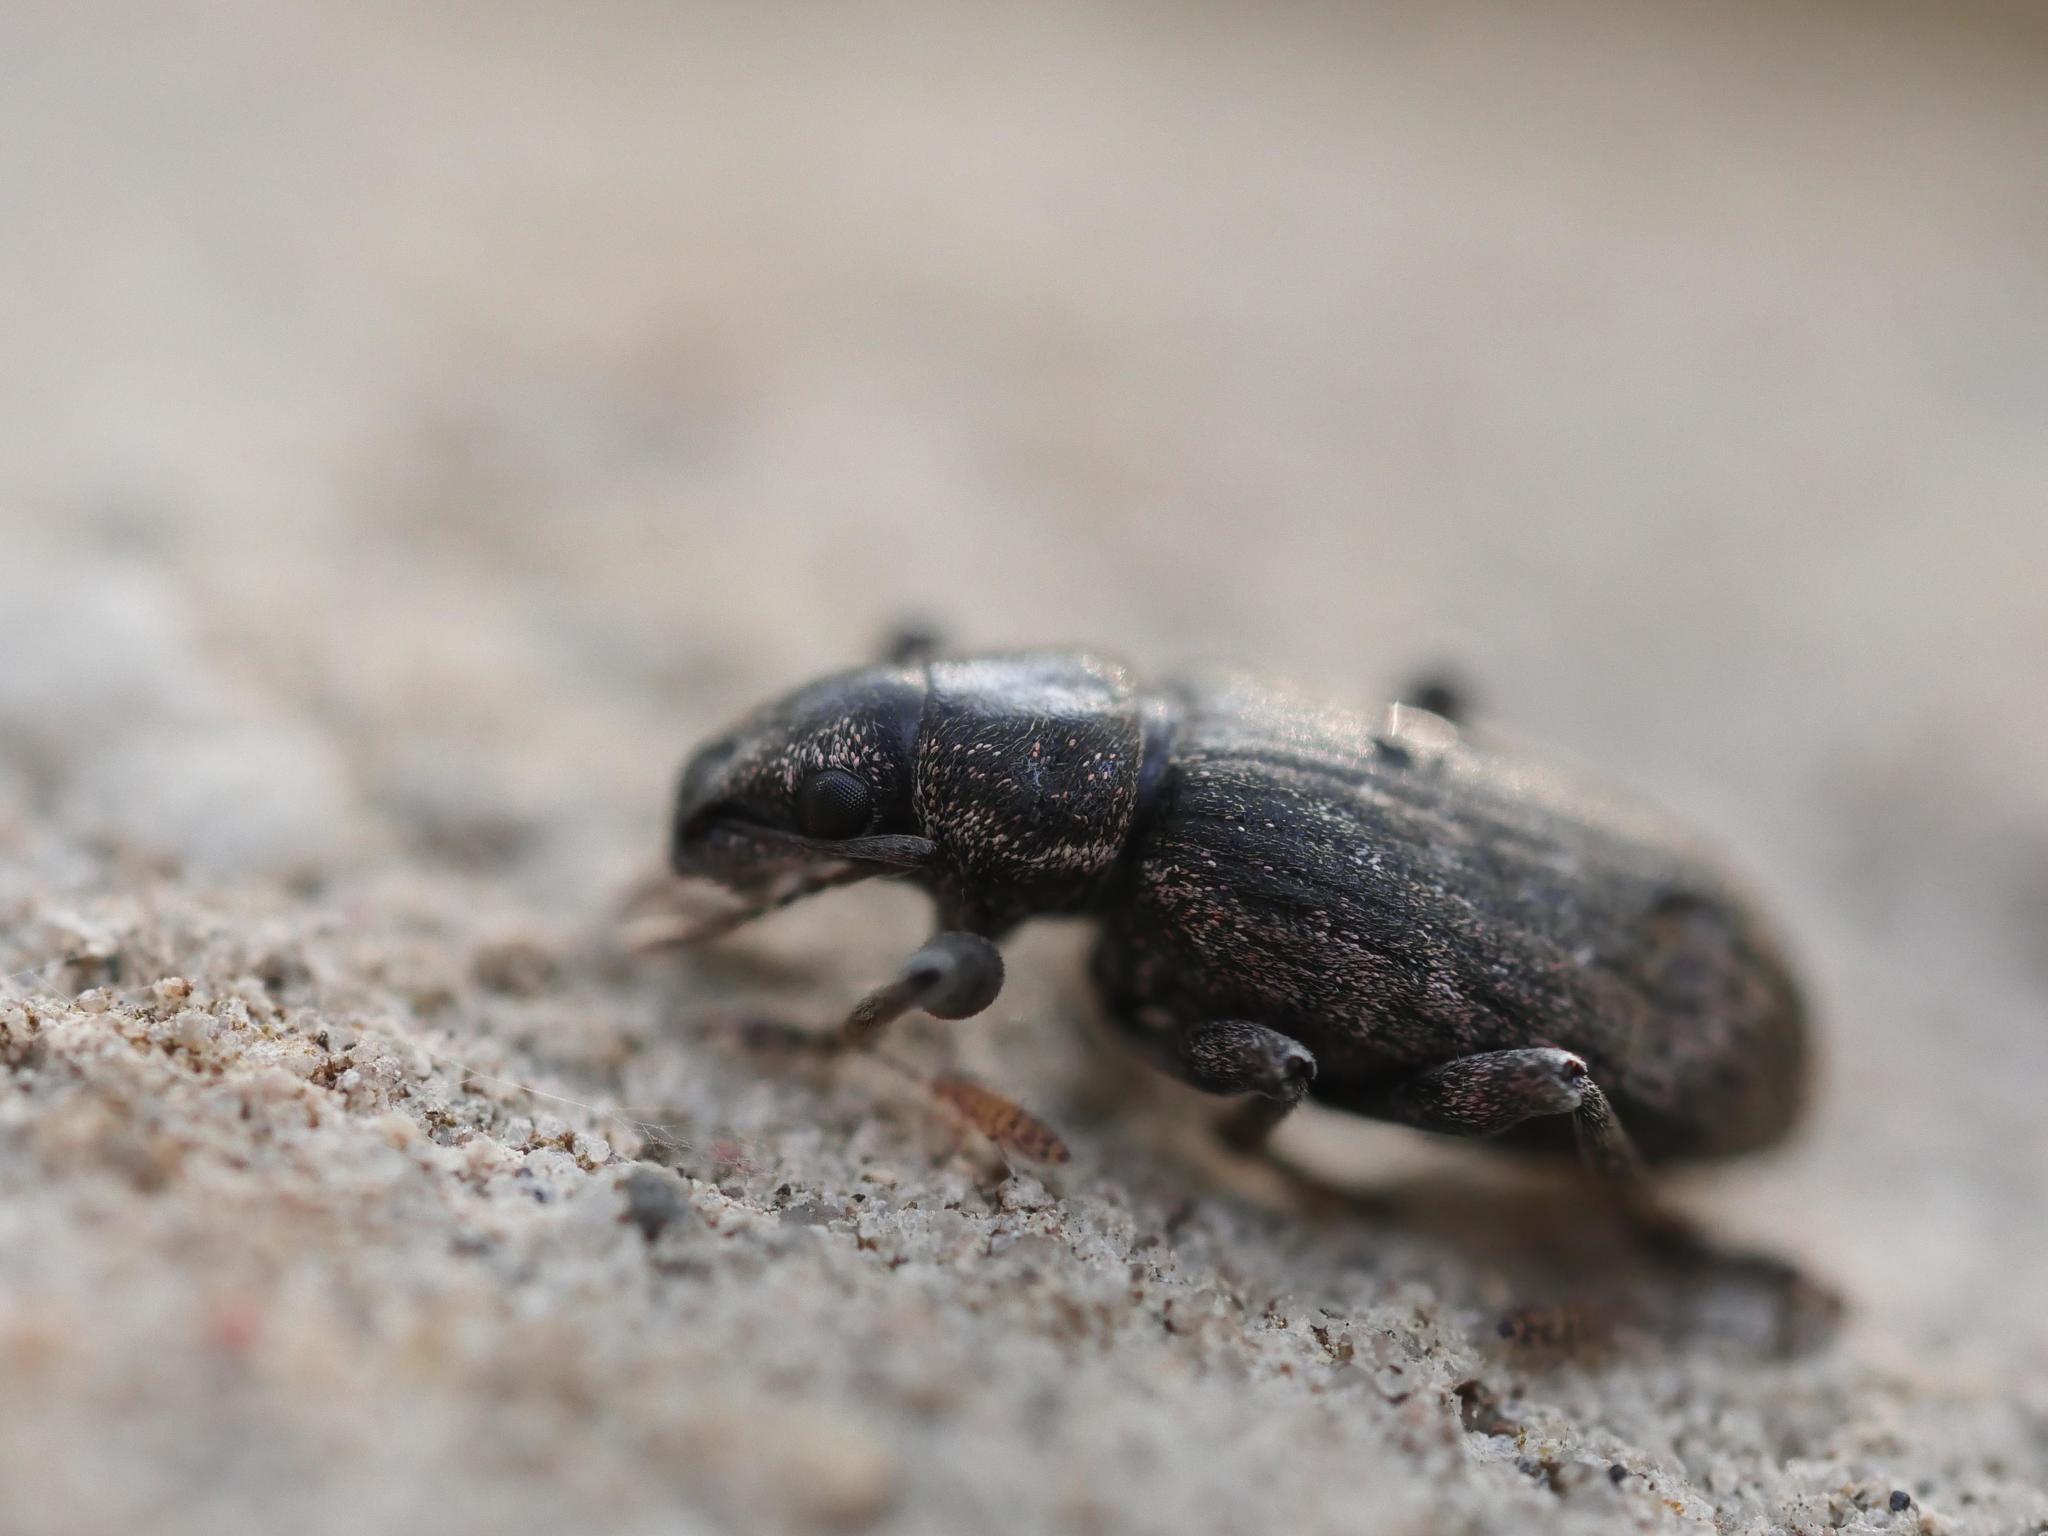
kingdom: Animalia
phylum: Arthropoda
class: Insecta
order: Coleoptera
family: Curculionidae
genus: Brachyderes
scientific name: Brachyderes incanus
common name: Weevil
